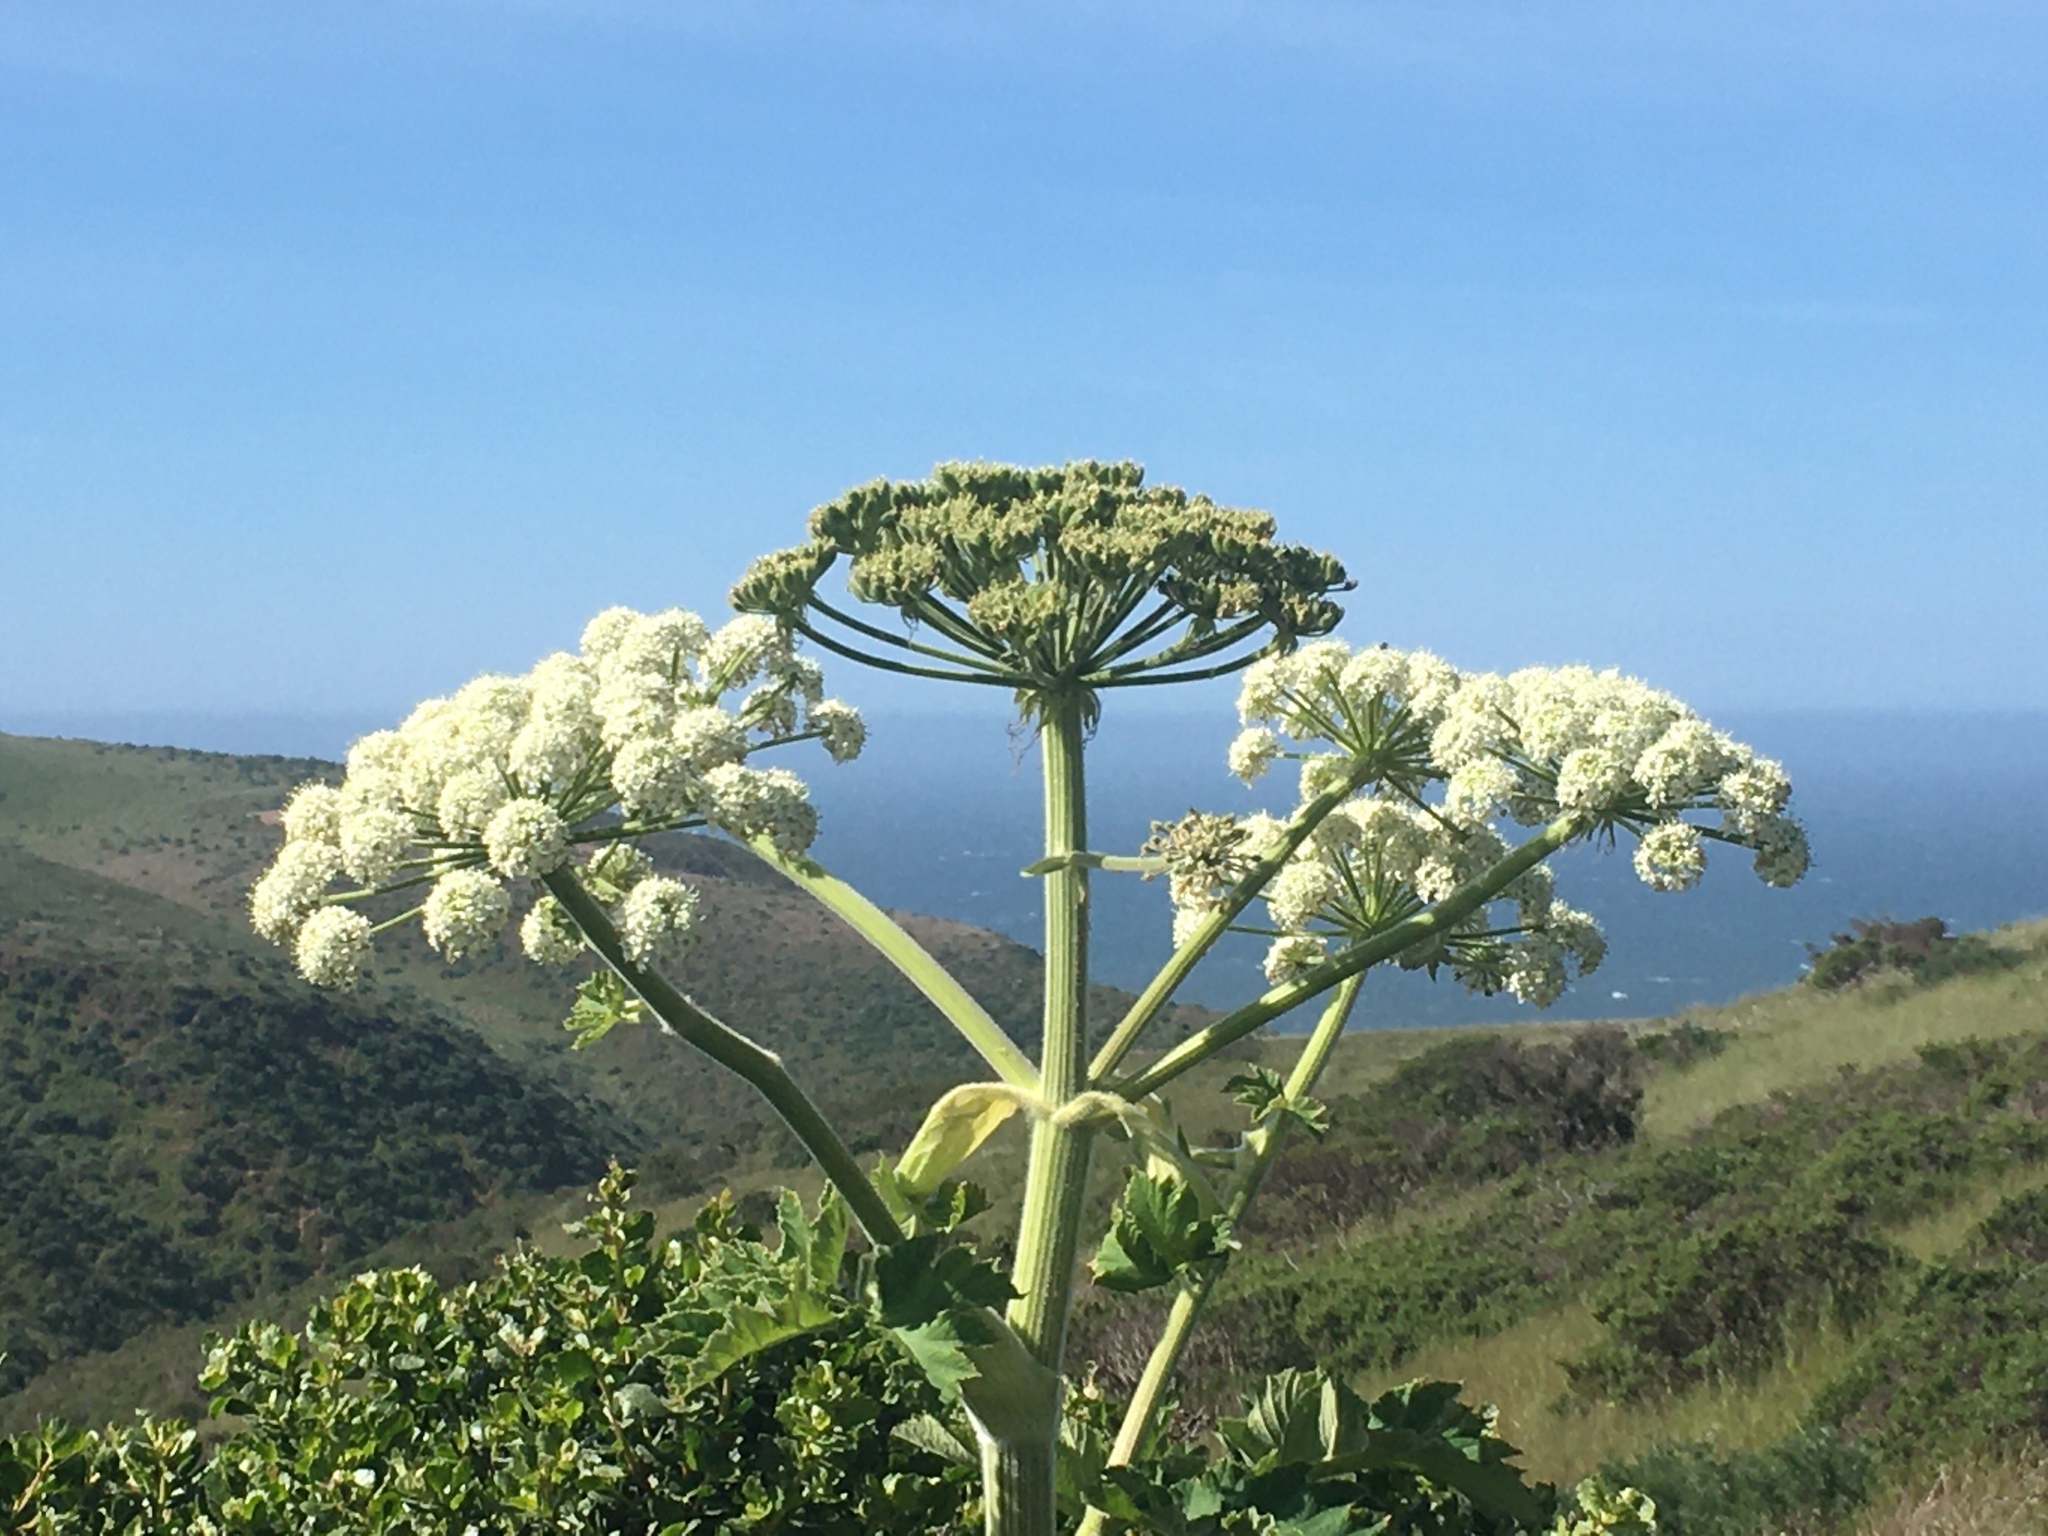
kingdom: Plantae
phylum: Tracheophyta
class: Magnoliopsida
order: Apiales
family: Apiaceae
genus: Heracleum
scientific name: Heracleum maximum
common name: American cow parsnip
